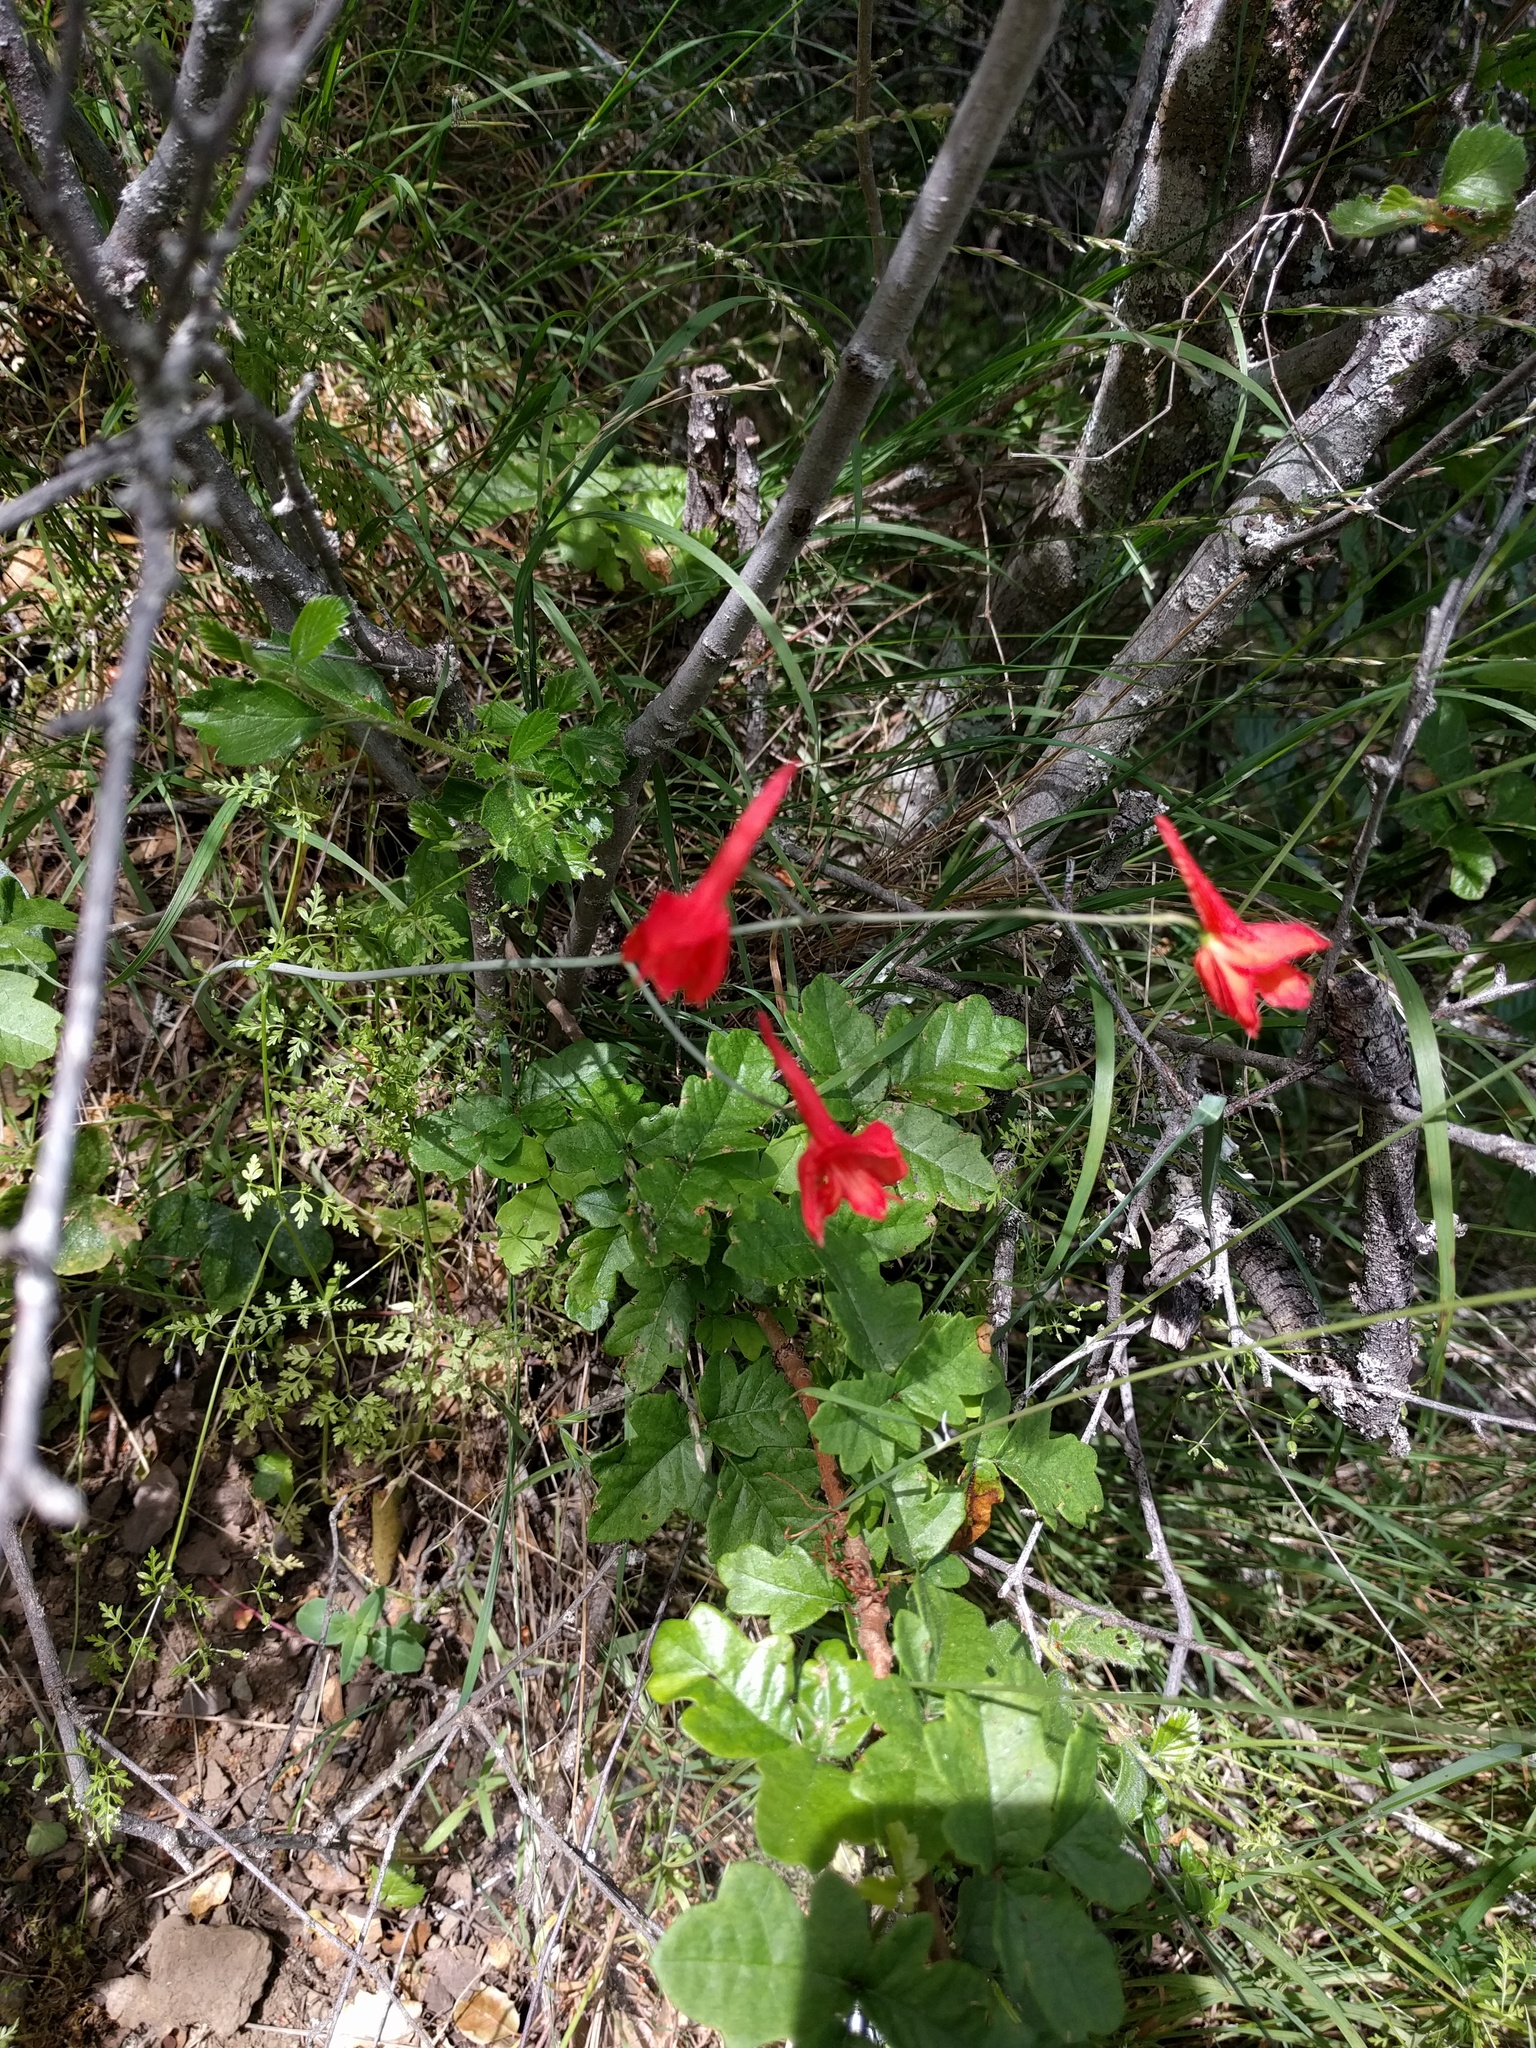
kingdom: Plantae
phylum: Tracheophyta
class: Magnoliopsida
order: Ranunculales
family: Ranunculaceae
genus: Delphinium
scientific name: Delphinium nudicaule
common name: Red larkspur
